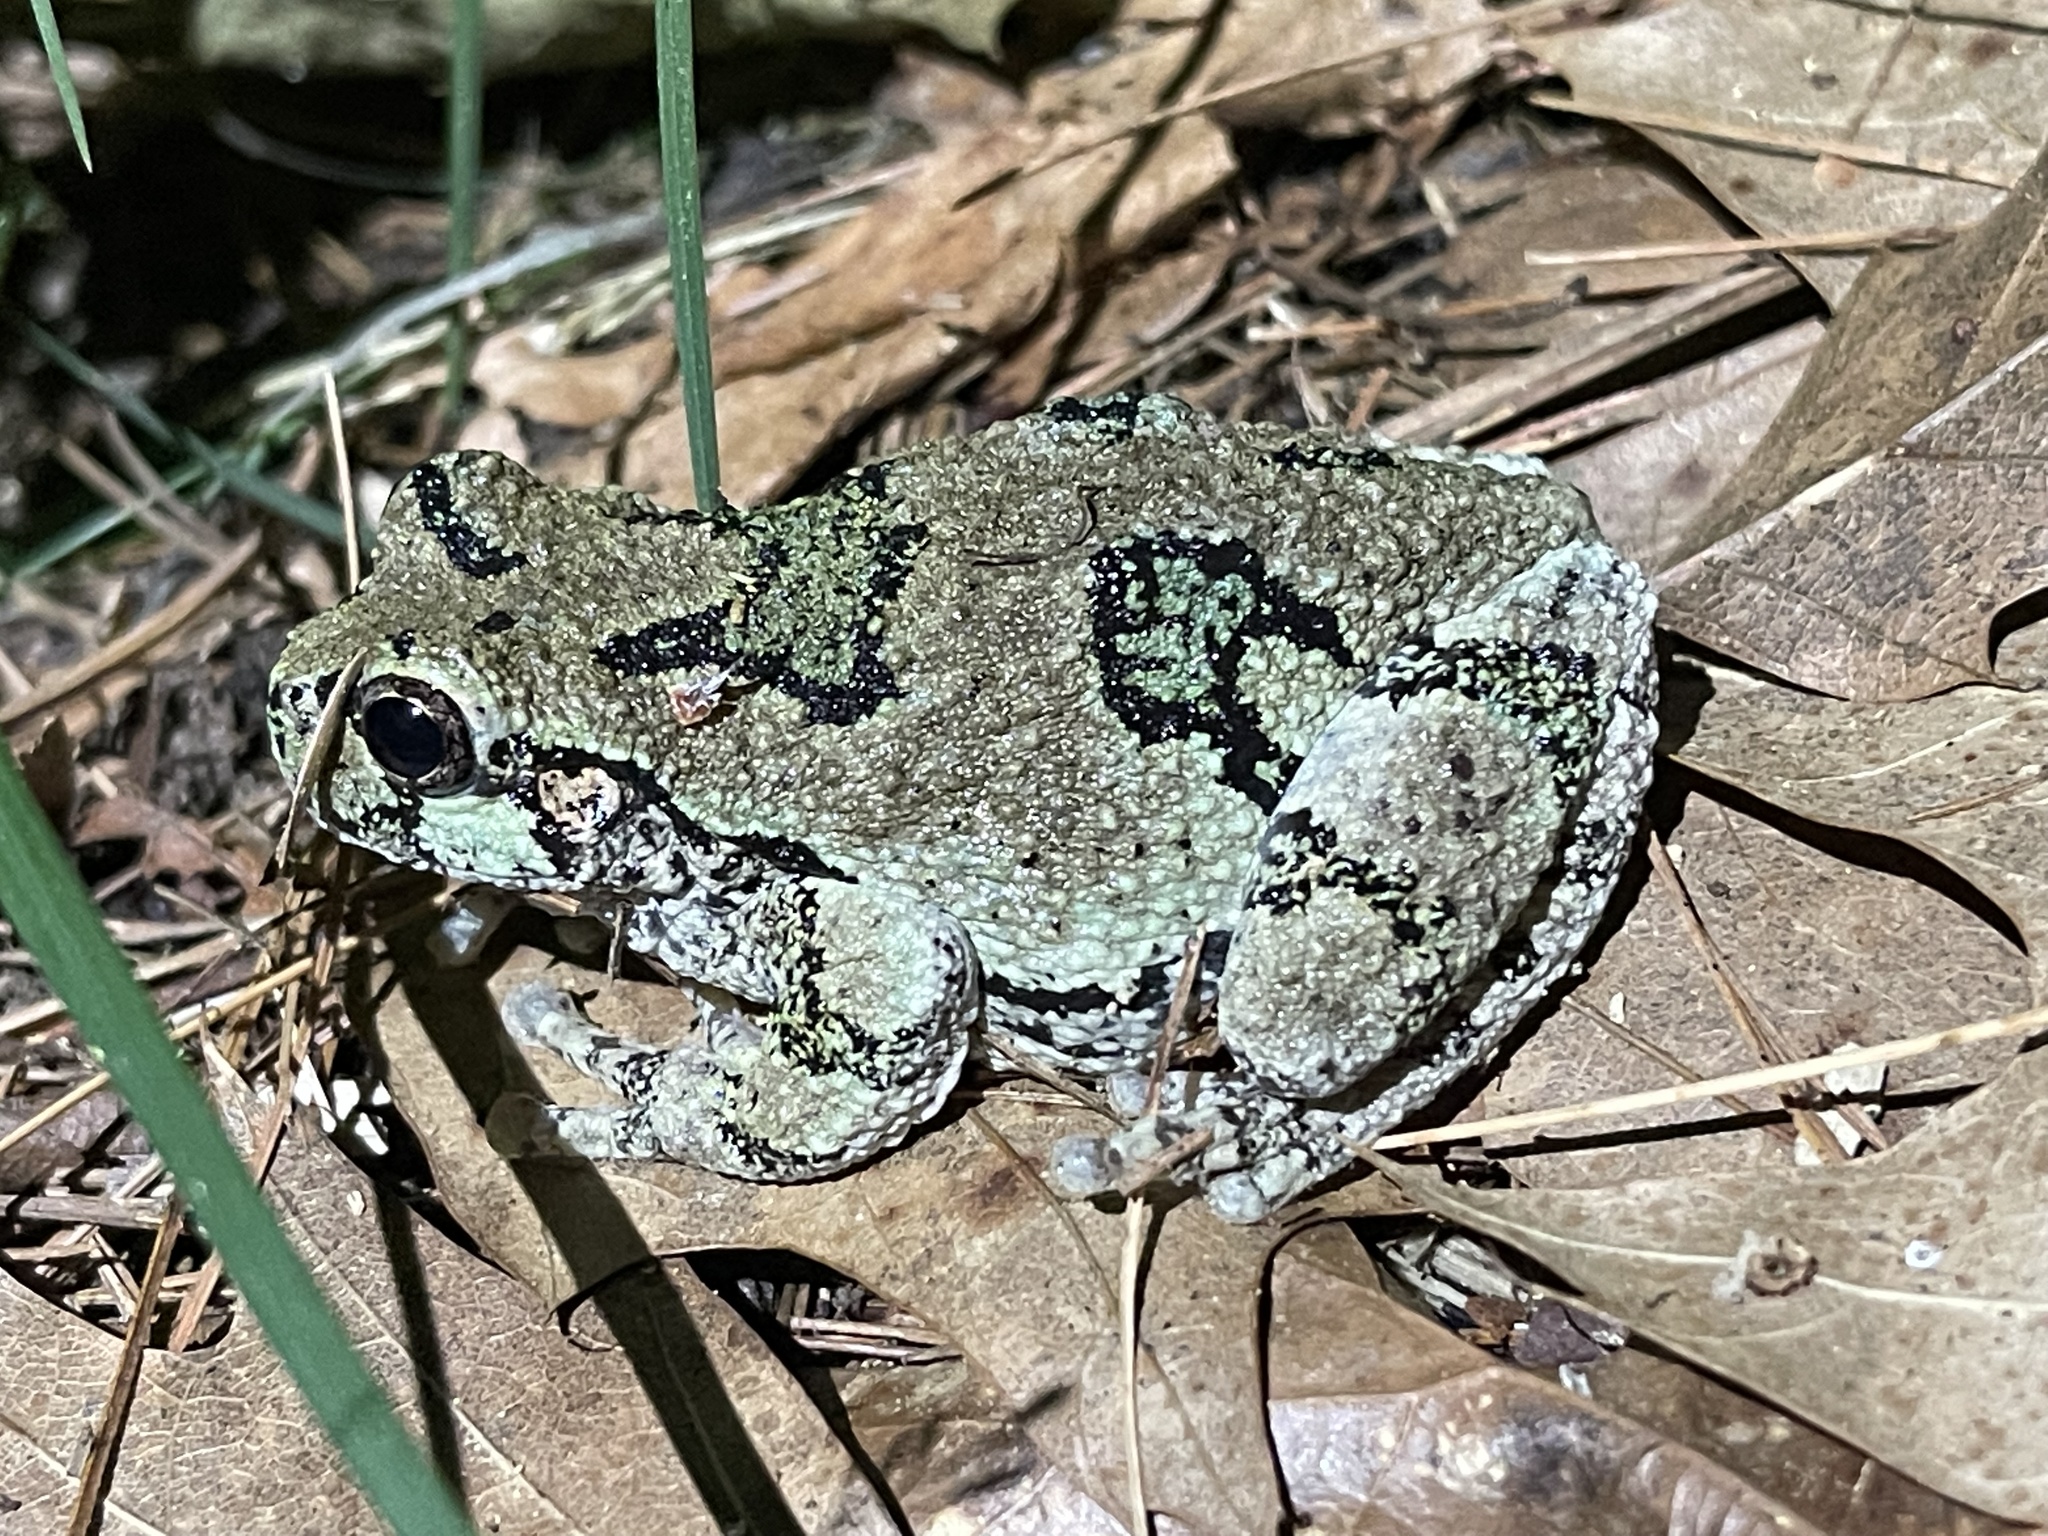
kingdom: Animalia
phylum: Chordata
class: Amphibia
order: Anura
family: Hylidae
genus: Dryophytes
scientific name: Dryophytes versicolor
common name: Gray treefrog
